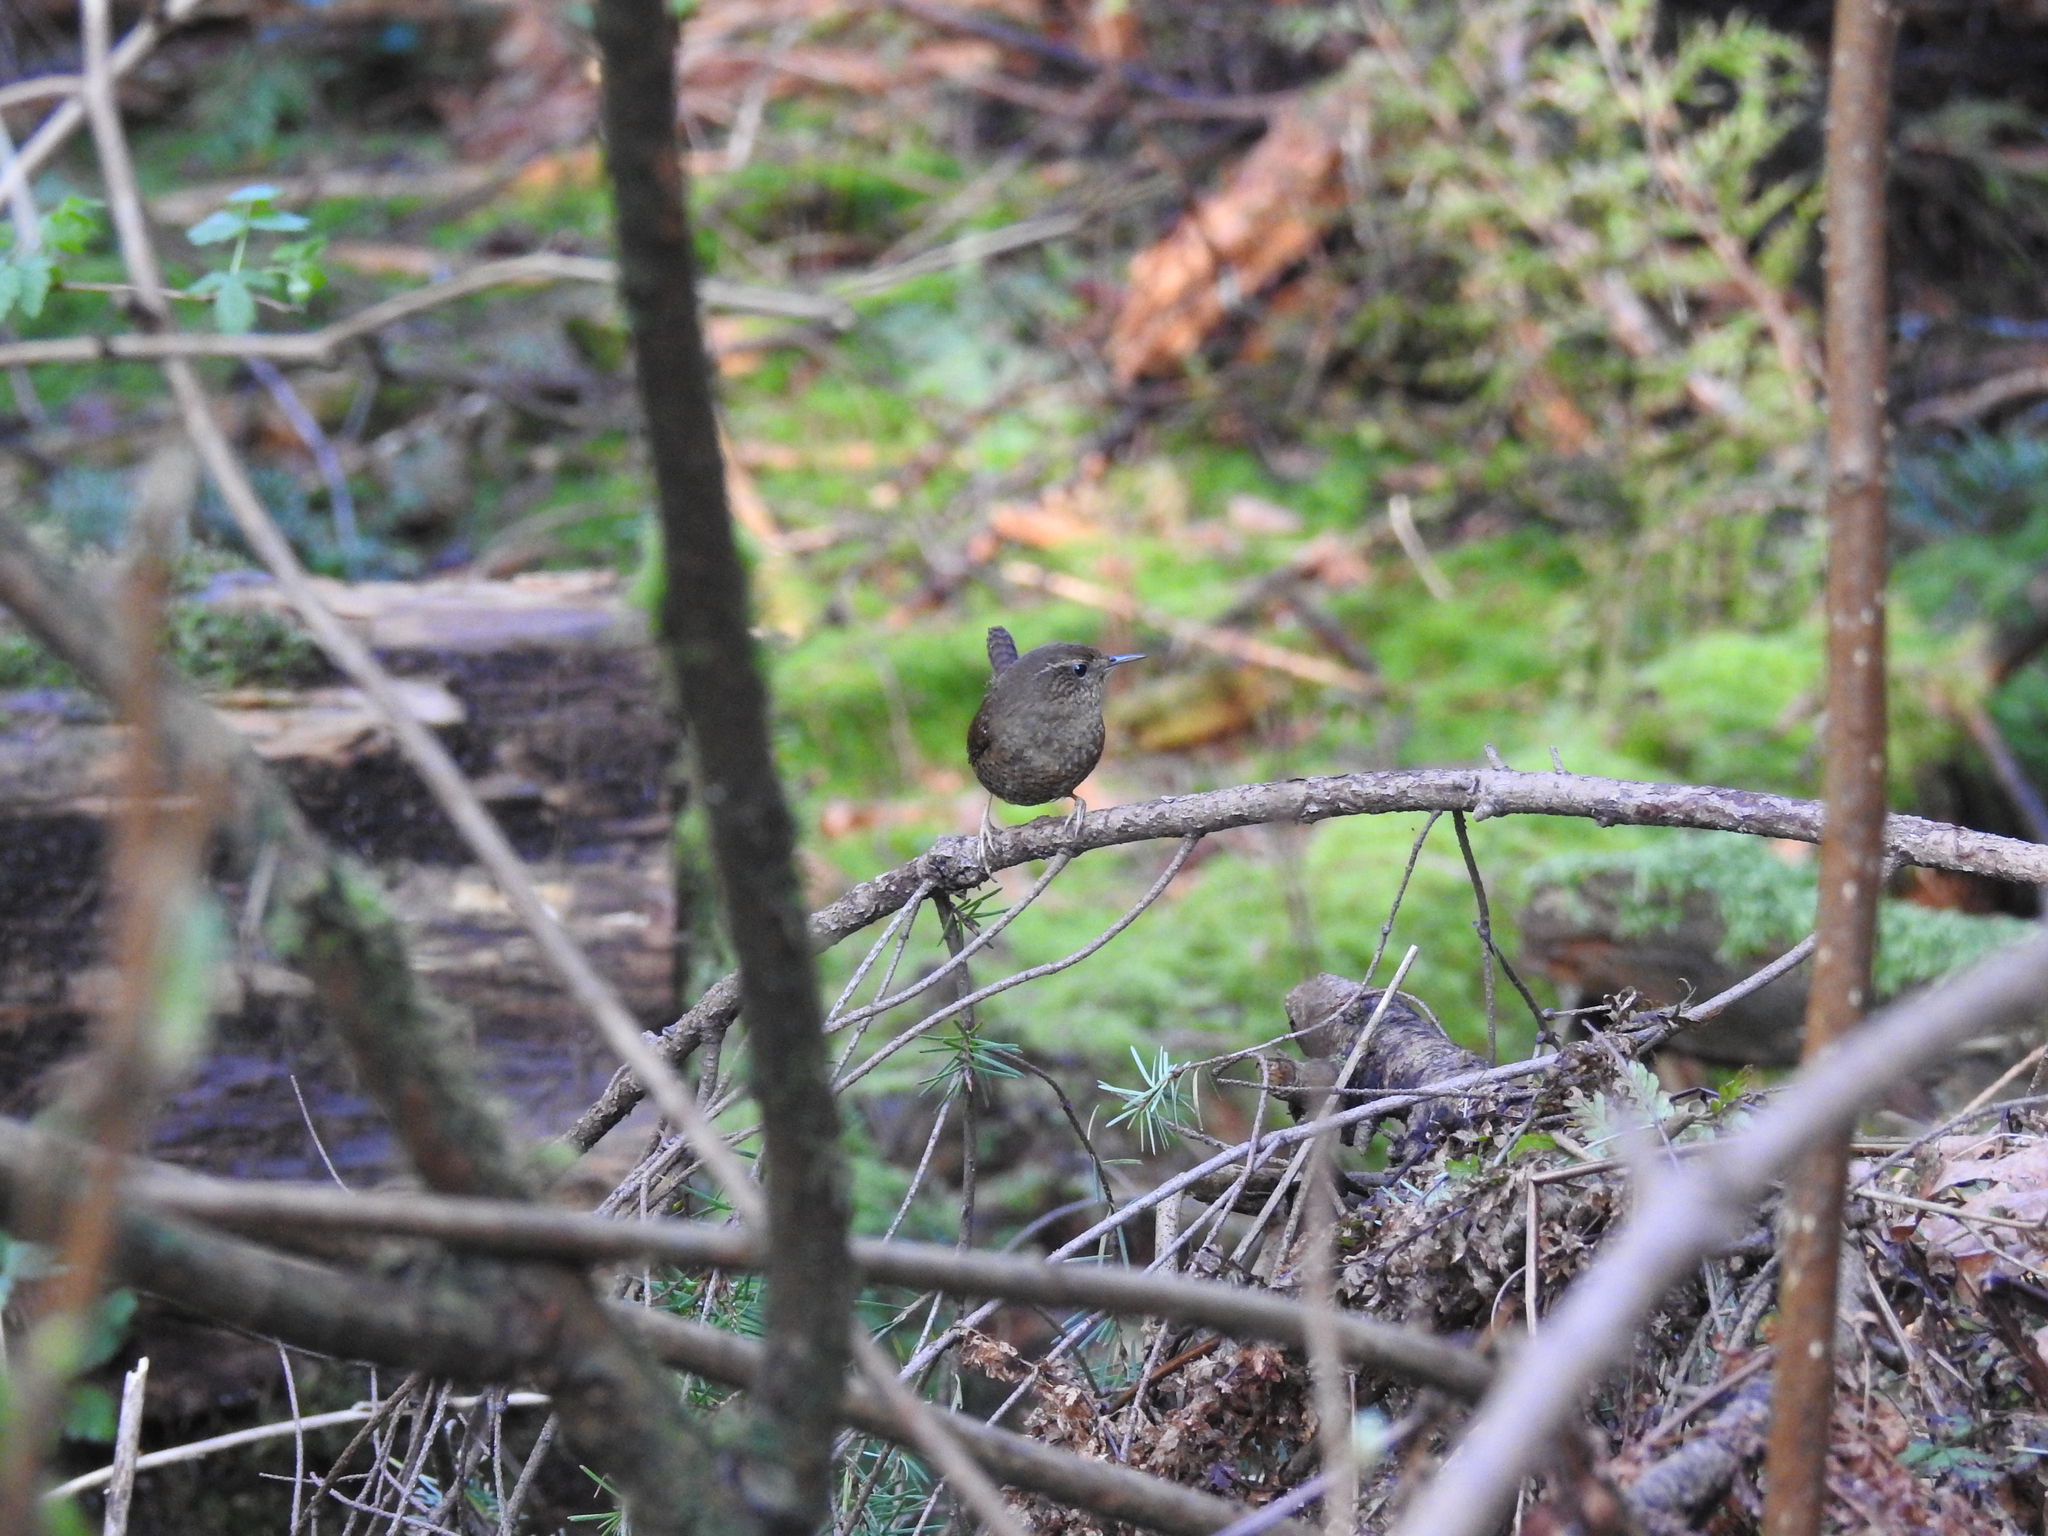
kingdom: Animalia
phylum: Chordata
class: Aves
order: Passeriformes
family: Troglodytidae
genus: Troglodytes
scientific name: Troglodytes pacificus
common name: Pacific wren
